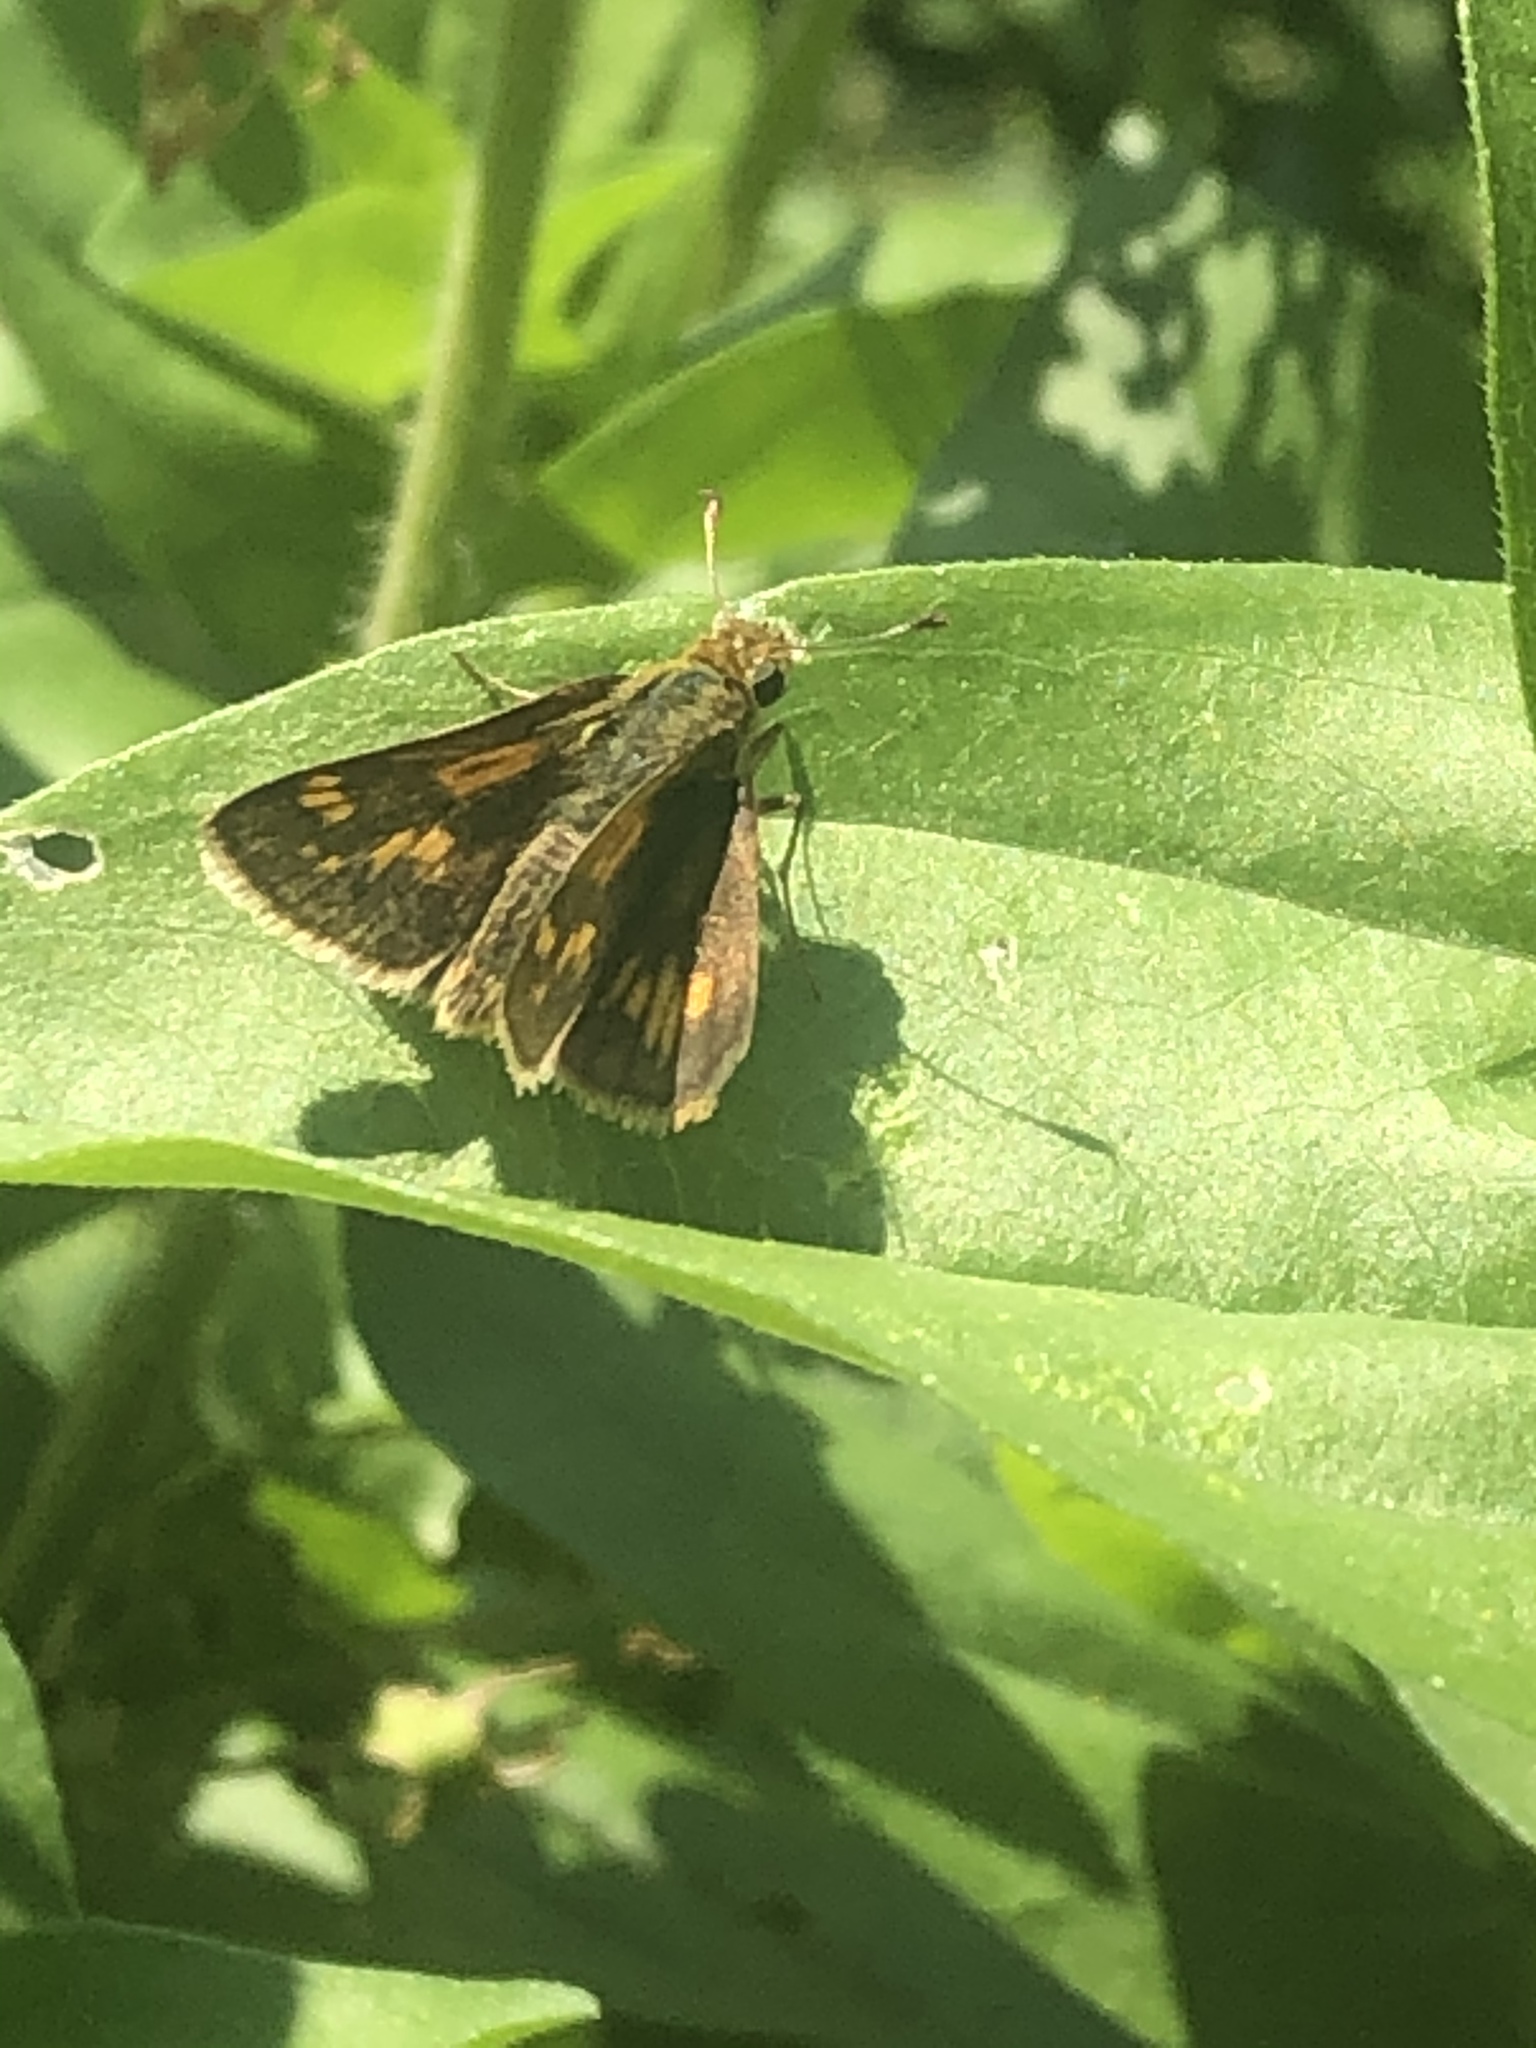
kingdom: Animalia
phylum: Arthropoda
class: Insecta
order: Lepidoptera
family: Hesperiidae
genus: Polites
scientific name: Polites coras
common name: Peck's skipper
